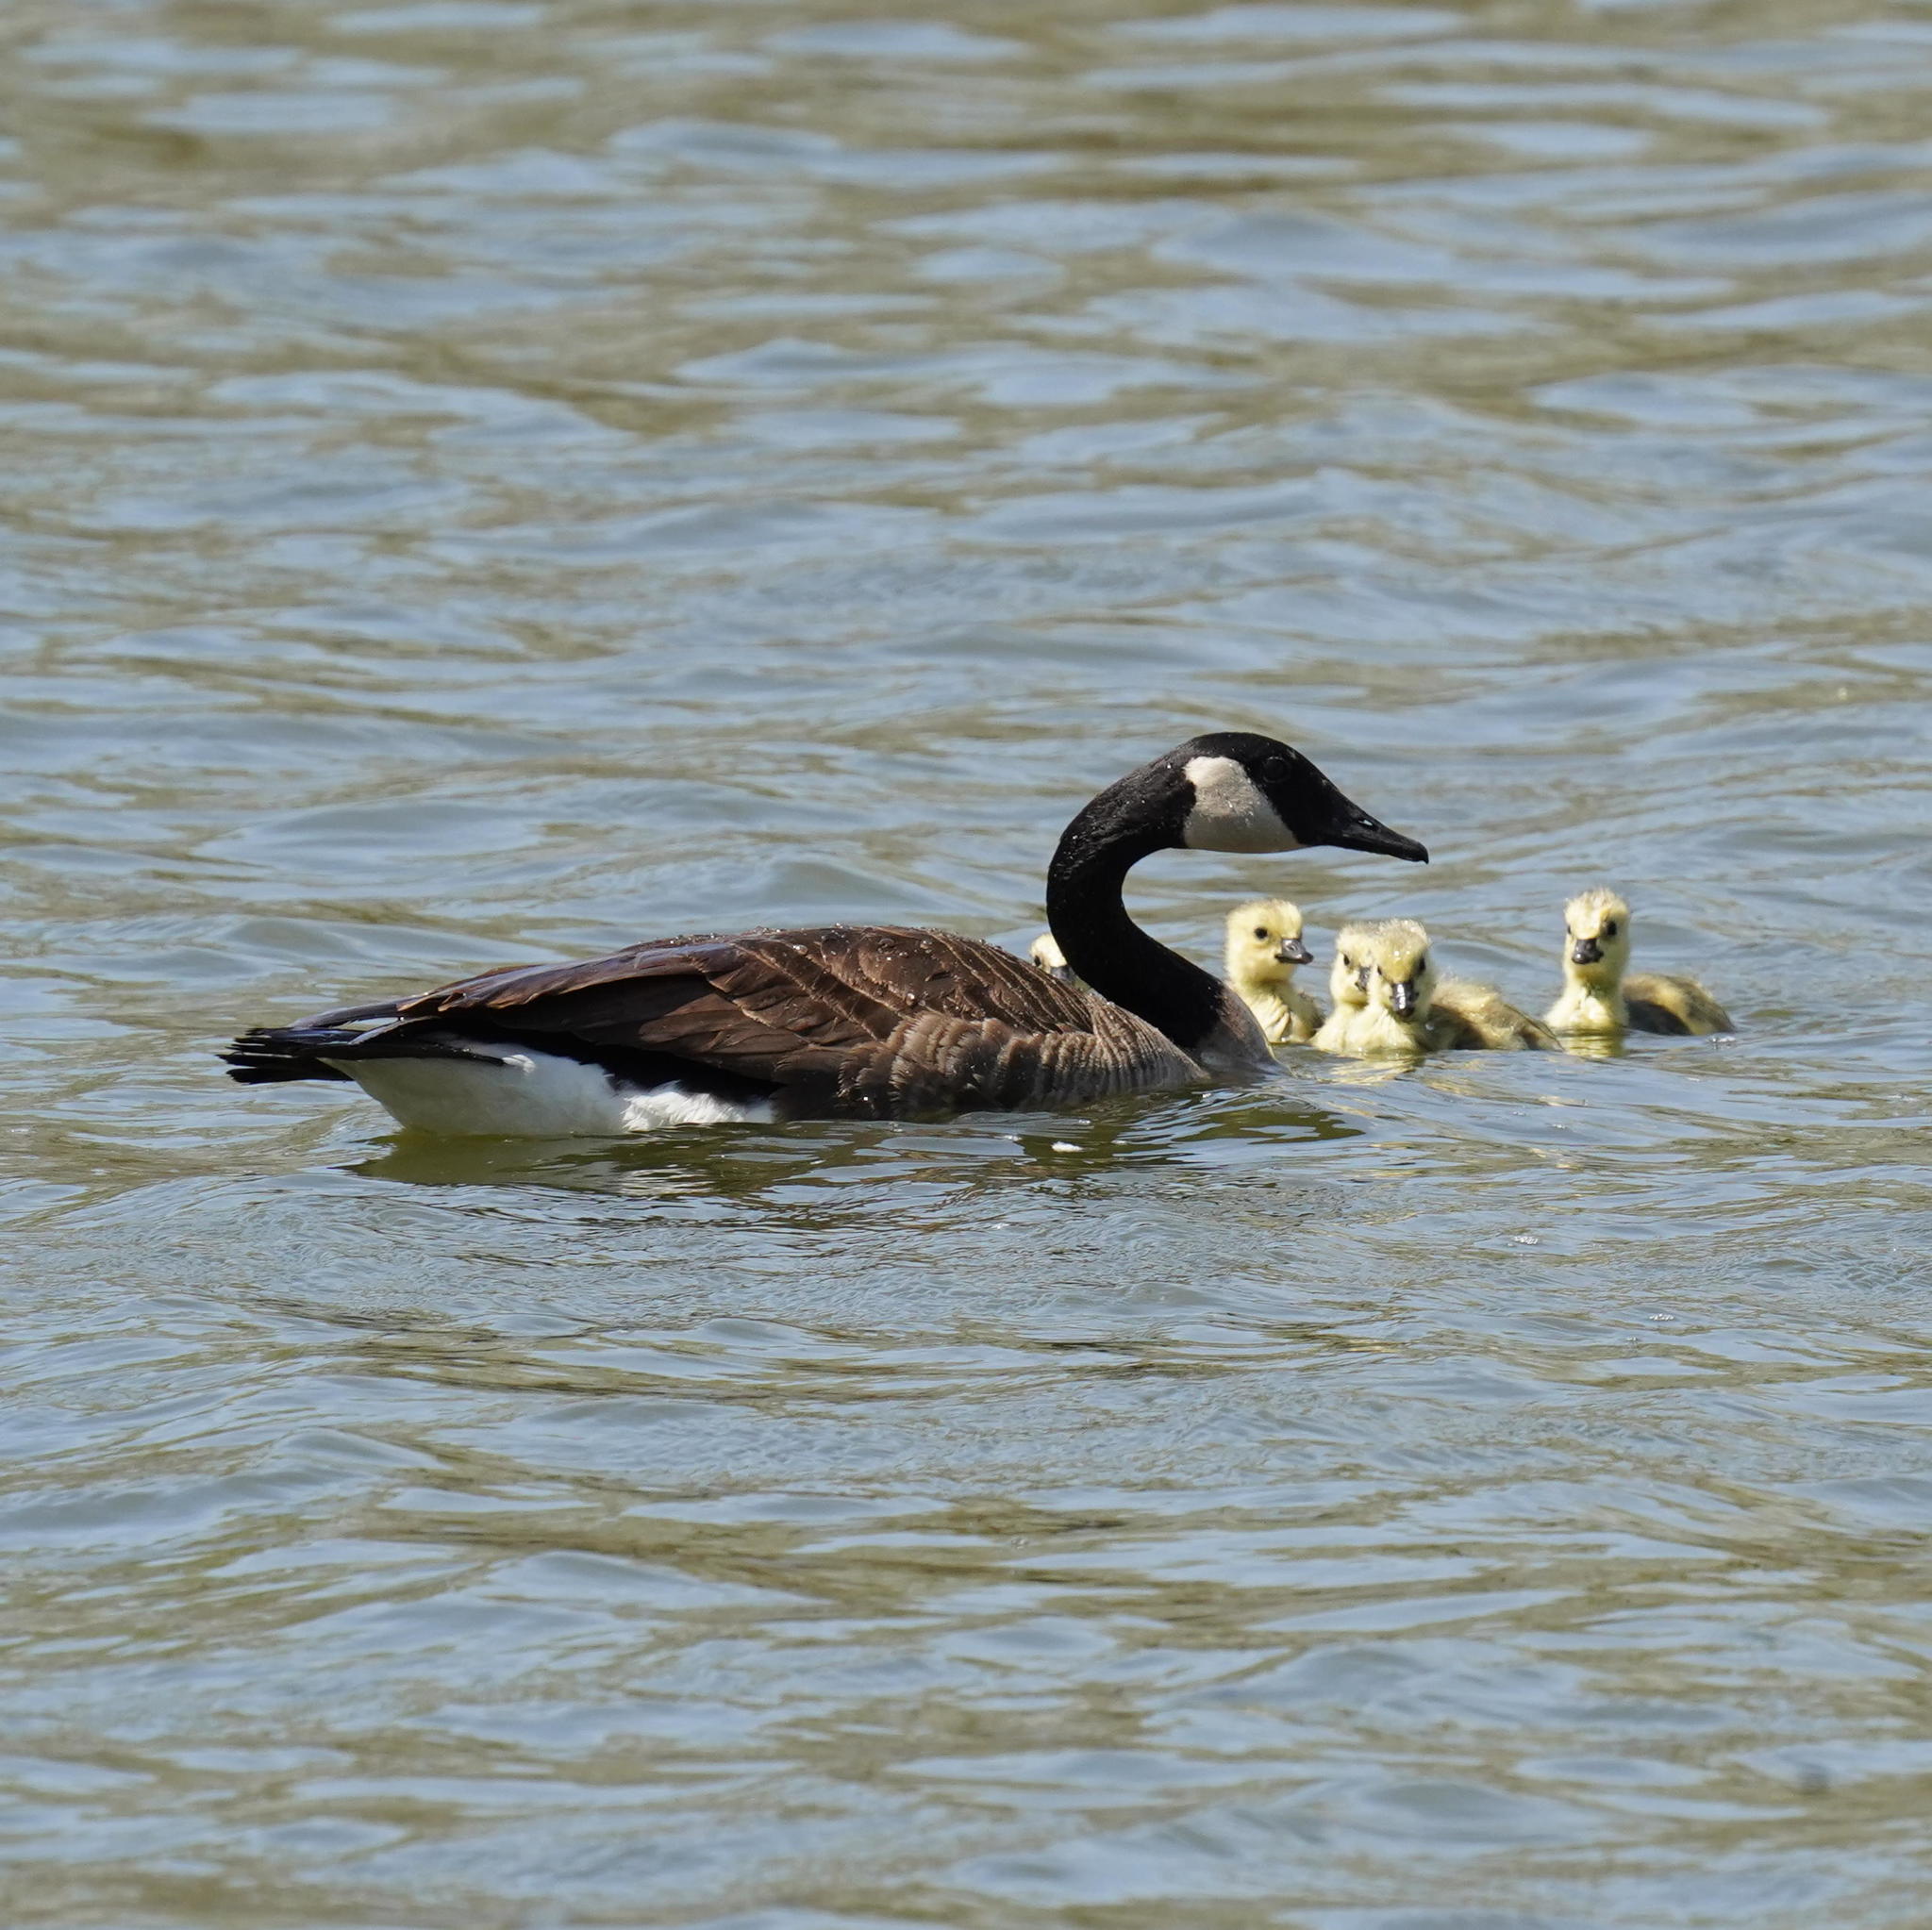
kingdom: Animalia
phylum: Chordata
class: Aves
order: Anseriformes
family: Anatidae
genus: Branta
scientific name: Branta canadensis
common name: Canada goose
